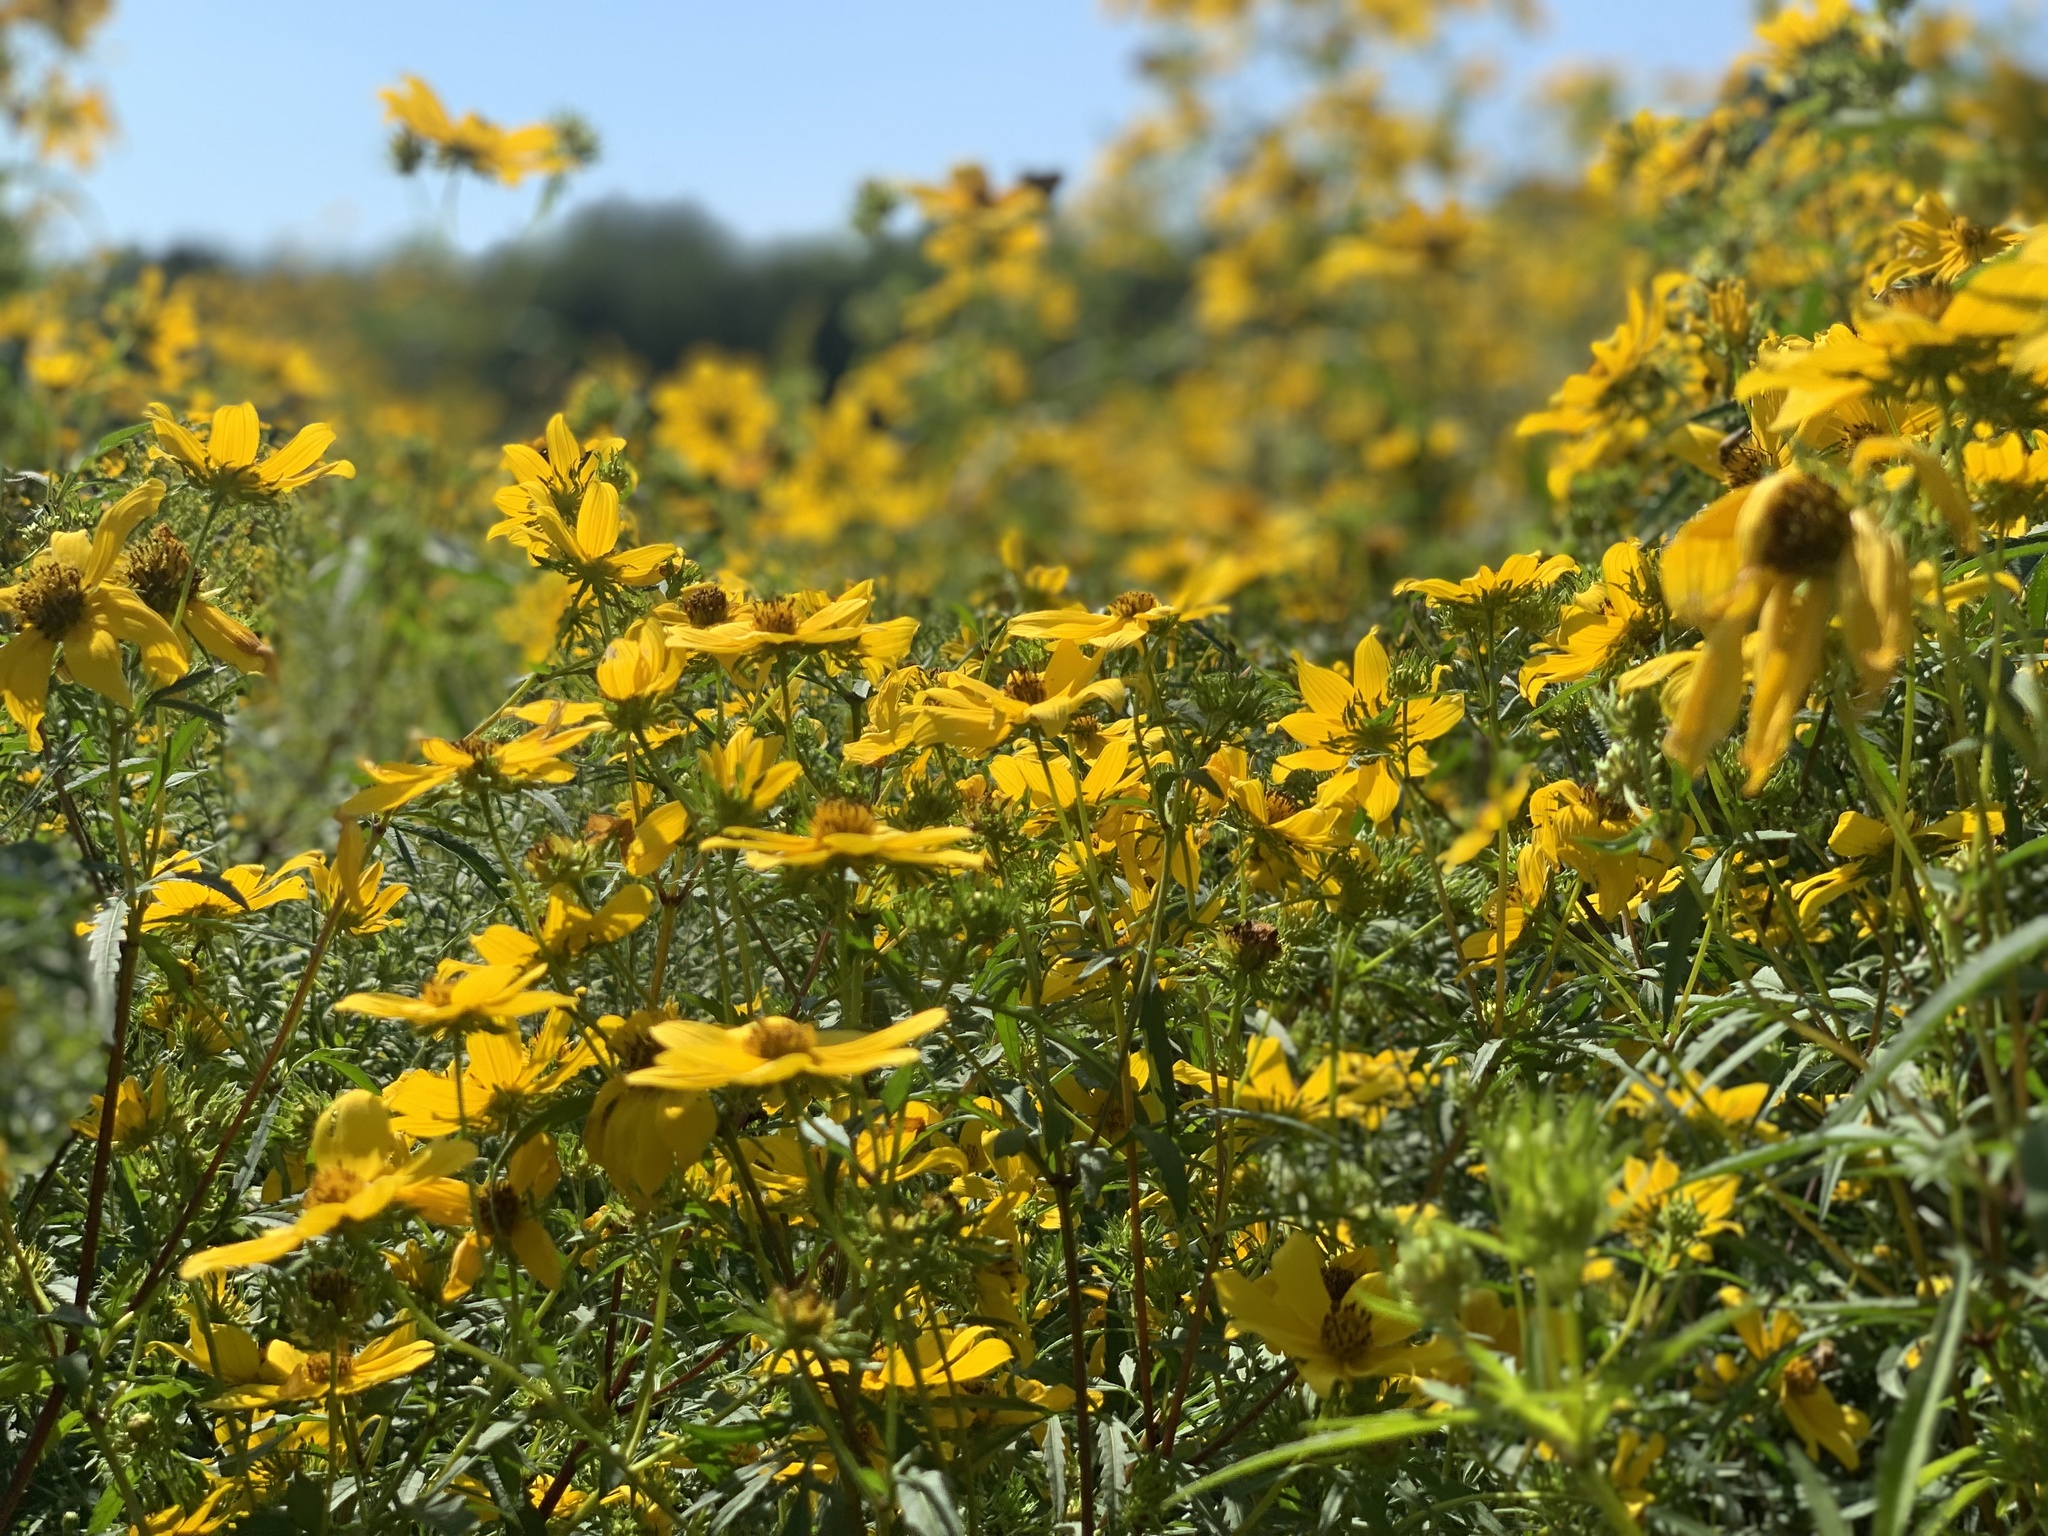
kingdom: Plantae
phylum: Tracheophyta
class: Magnoliopsida
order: Asterales
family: Asteraceae
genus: Bidens
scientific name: Bidens aristosa
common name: Western tickseed
